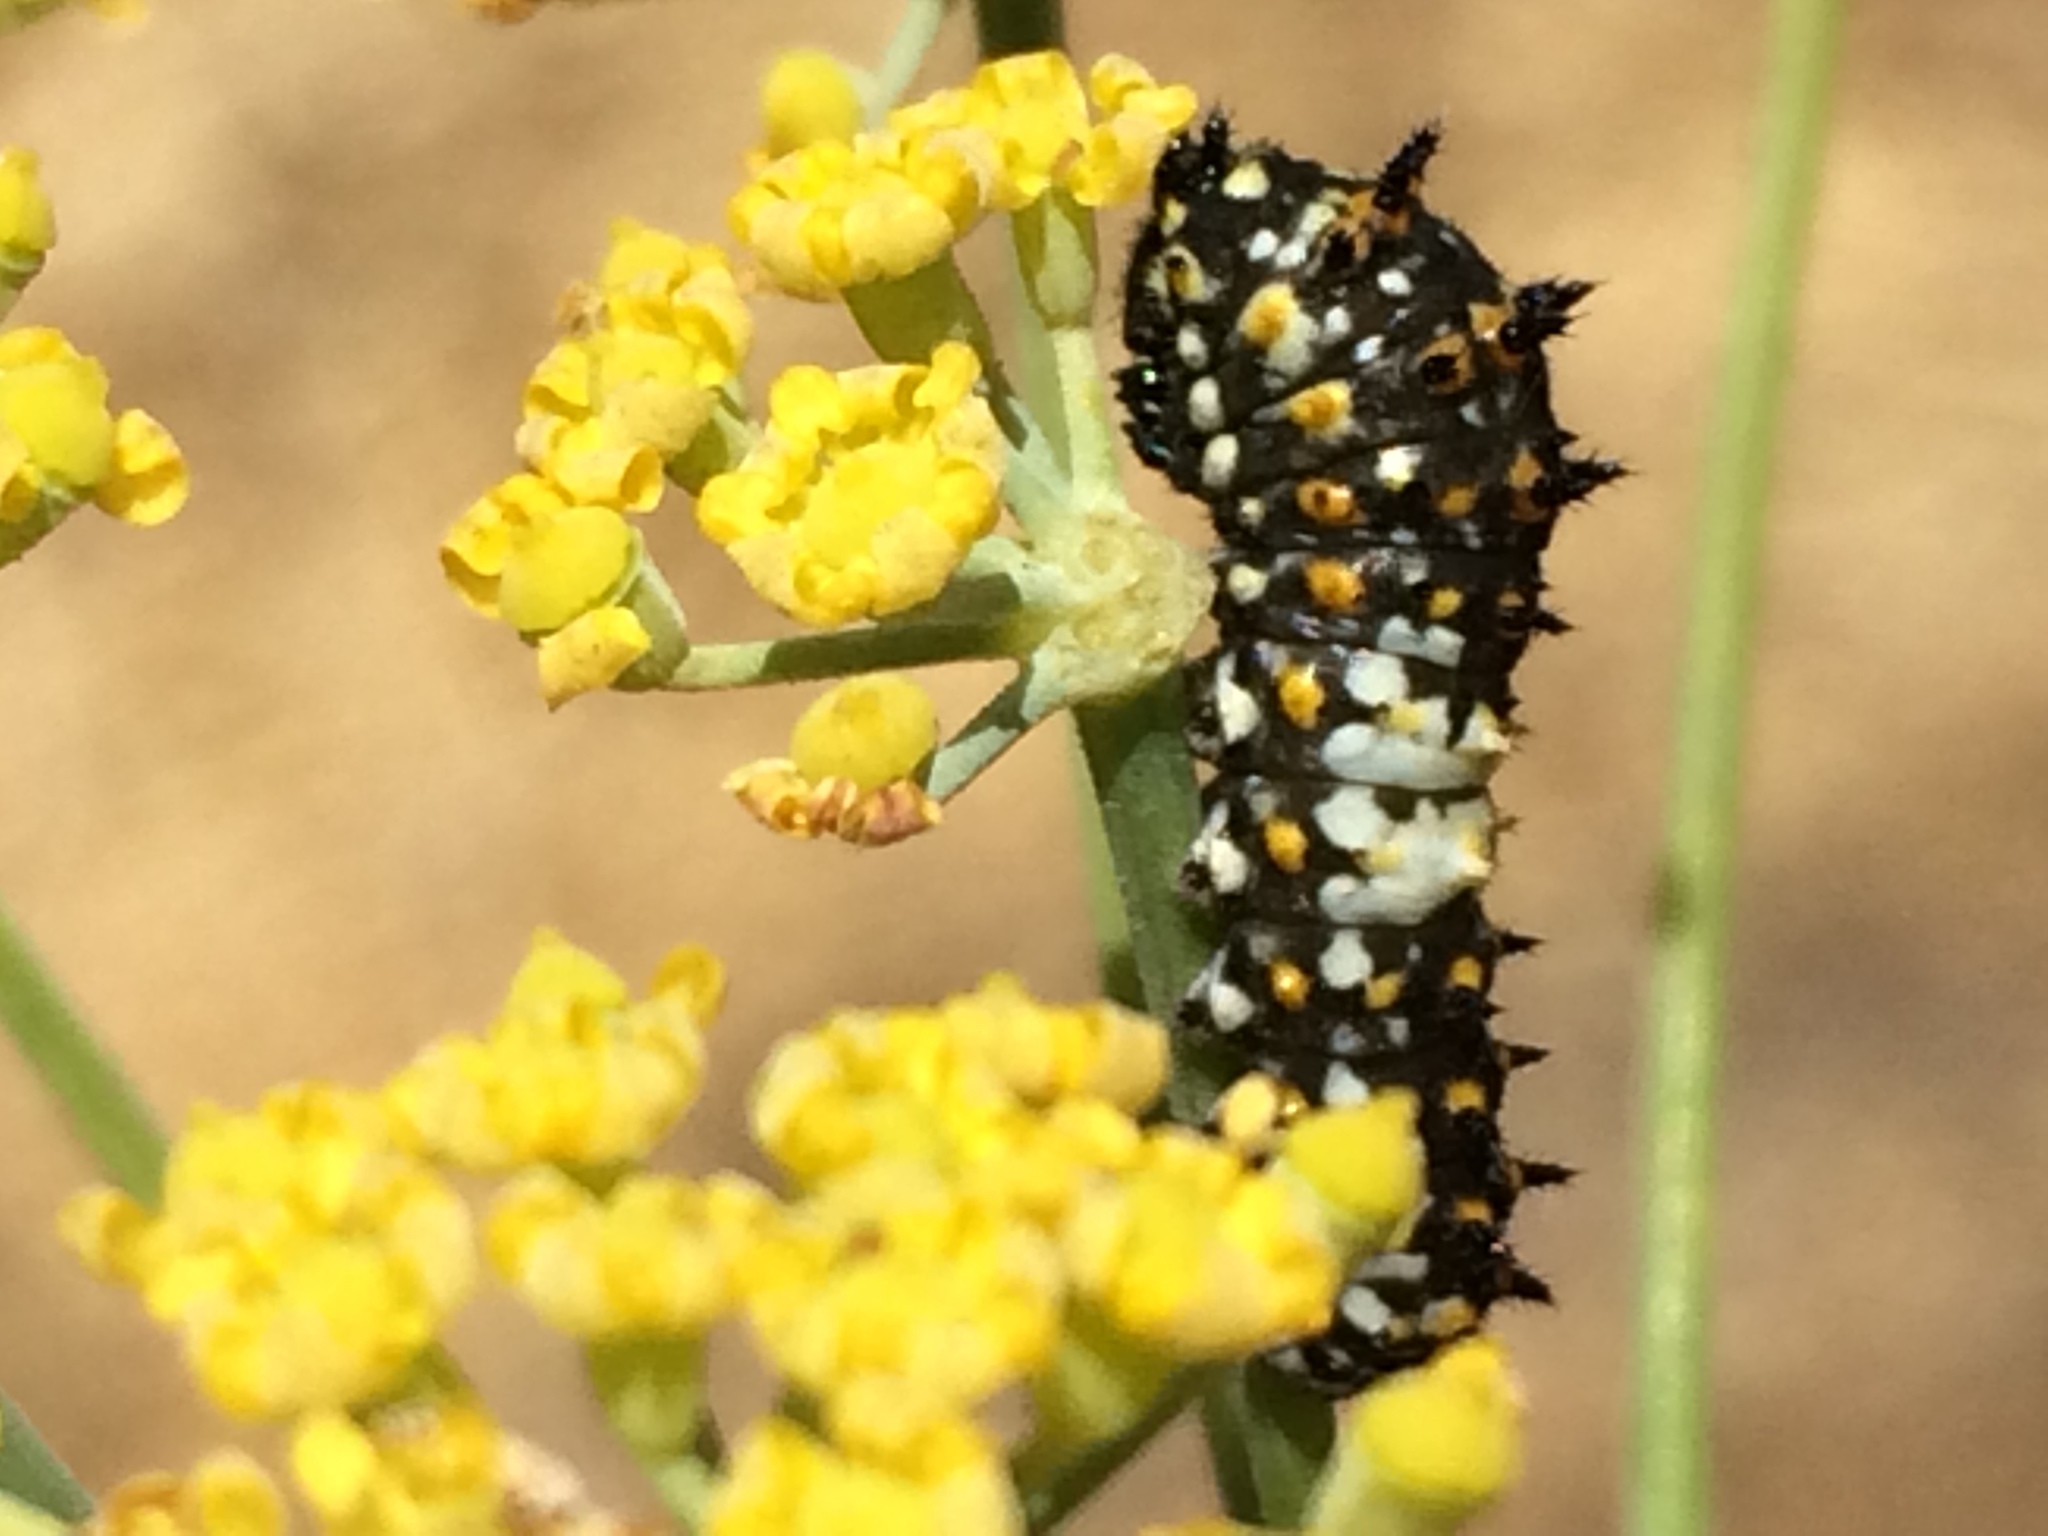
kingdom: Animalia
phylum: Arthropoda
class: Insecta
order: Lepidoptera
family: Papilionidae
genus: Papilio
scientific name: Papilio zelicaon
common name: Anise swallowtail
